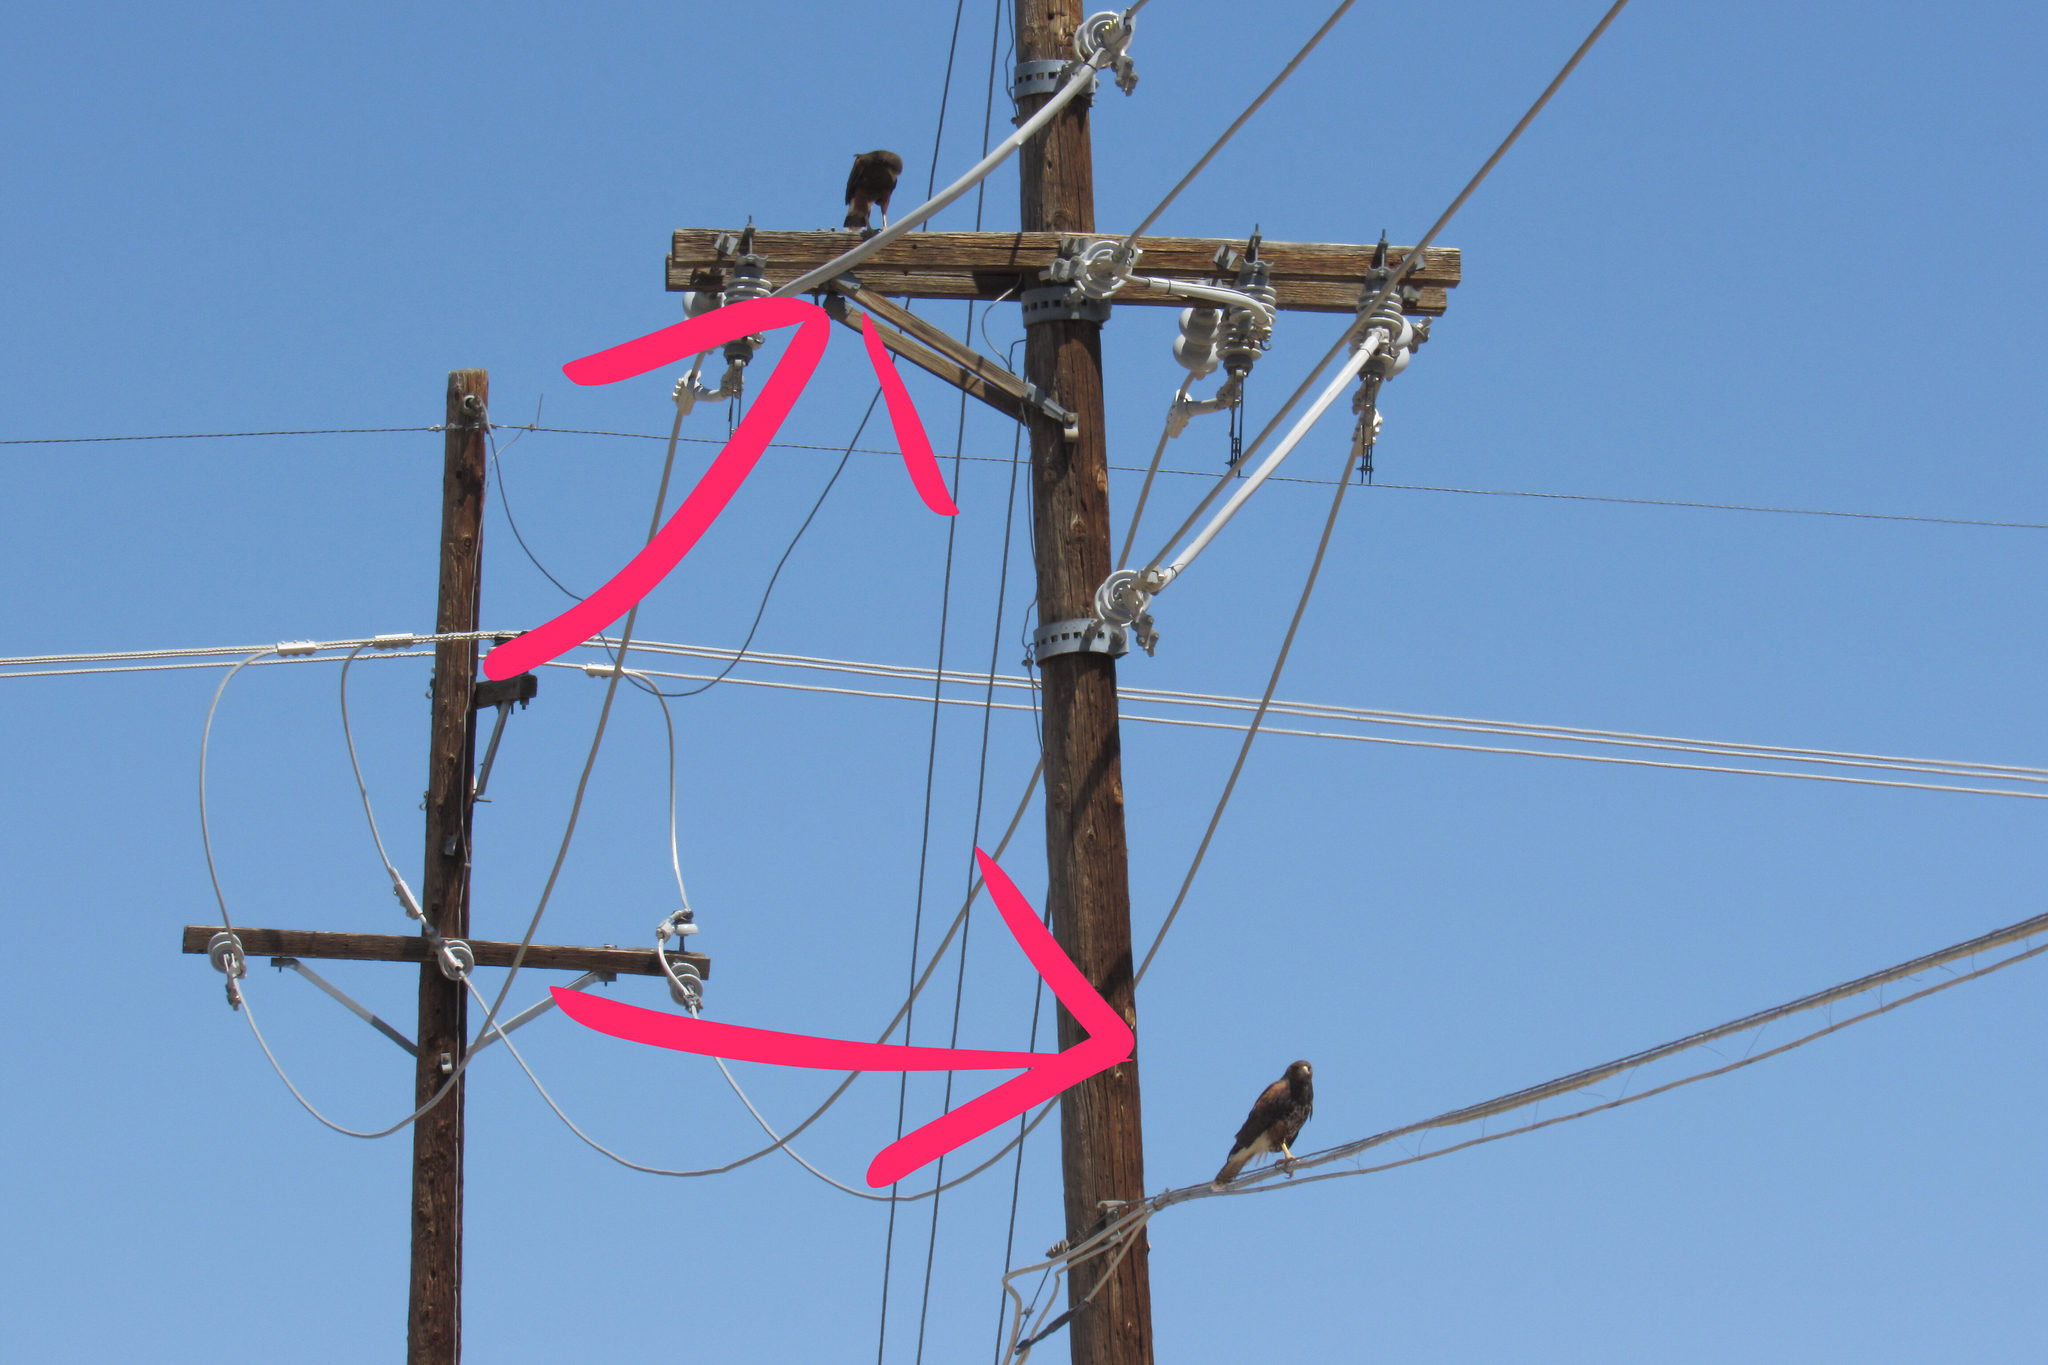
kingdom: Animalia
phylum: Chordata
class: Aves
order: Accipitriformes
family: Accipitridae
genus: Parabuteo
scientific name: Parabuteo unicinctus
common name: Harris's hawk
